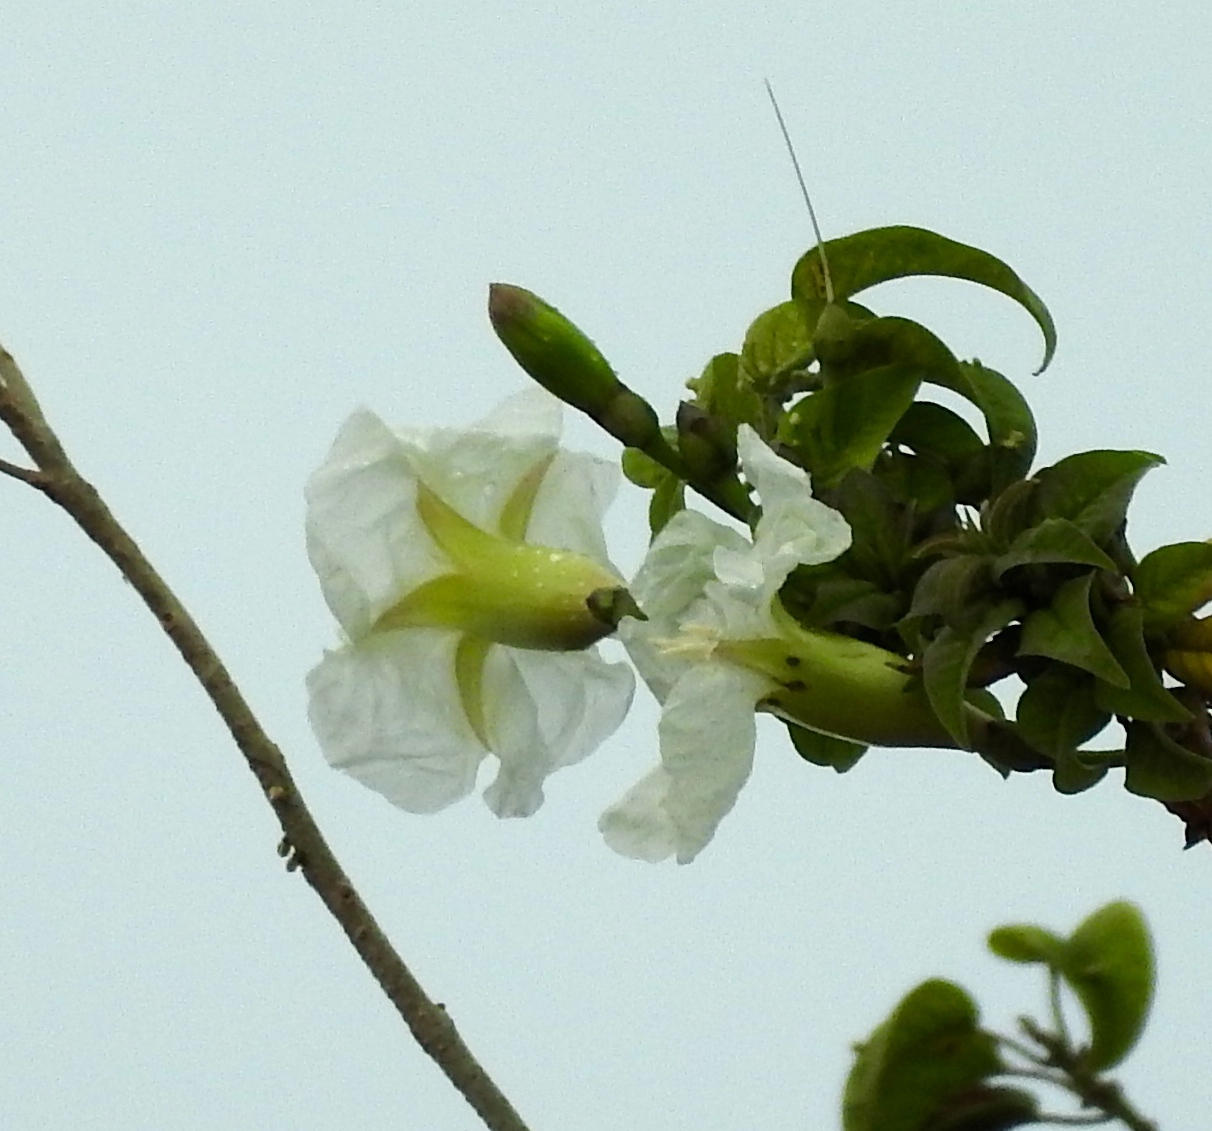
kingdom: Plantae
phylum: Tracheophyta
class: Magnoliopsida
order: Solanales
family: Convolvulaceae
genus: Ipomoea
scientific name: Ipomoea
